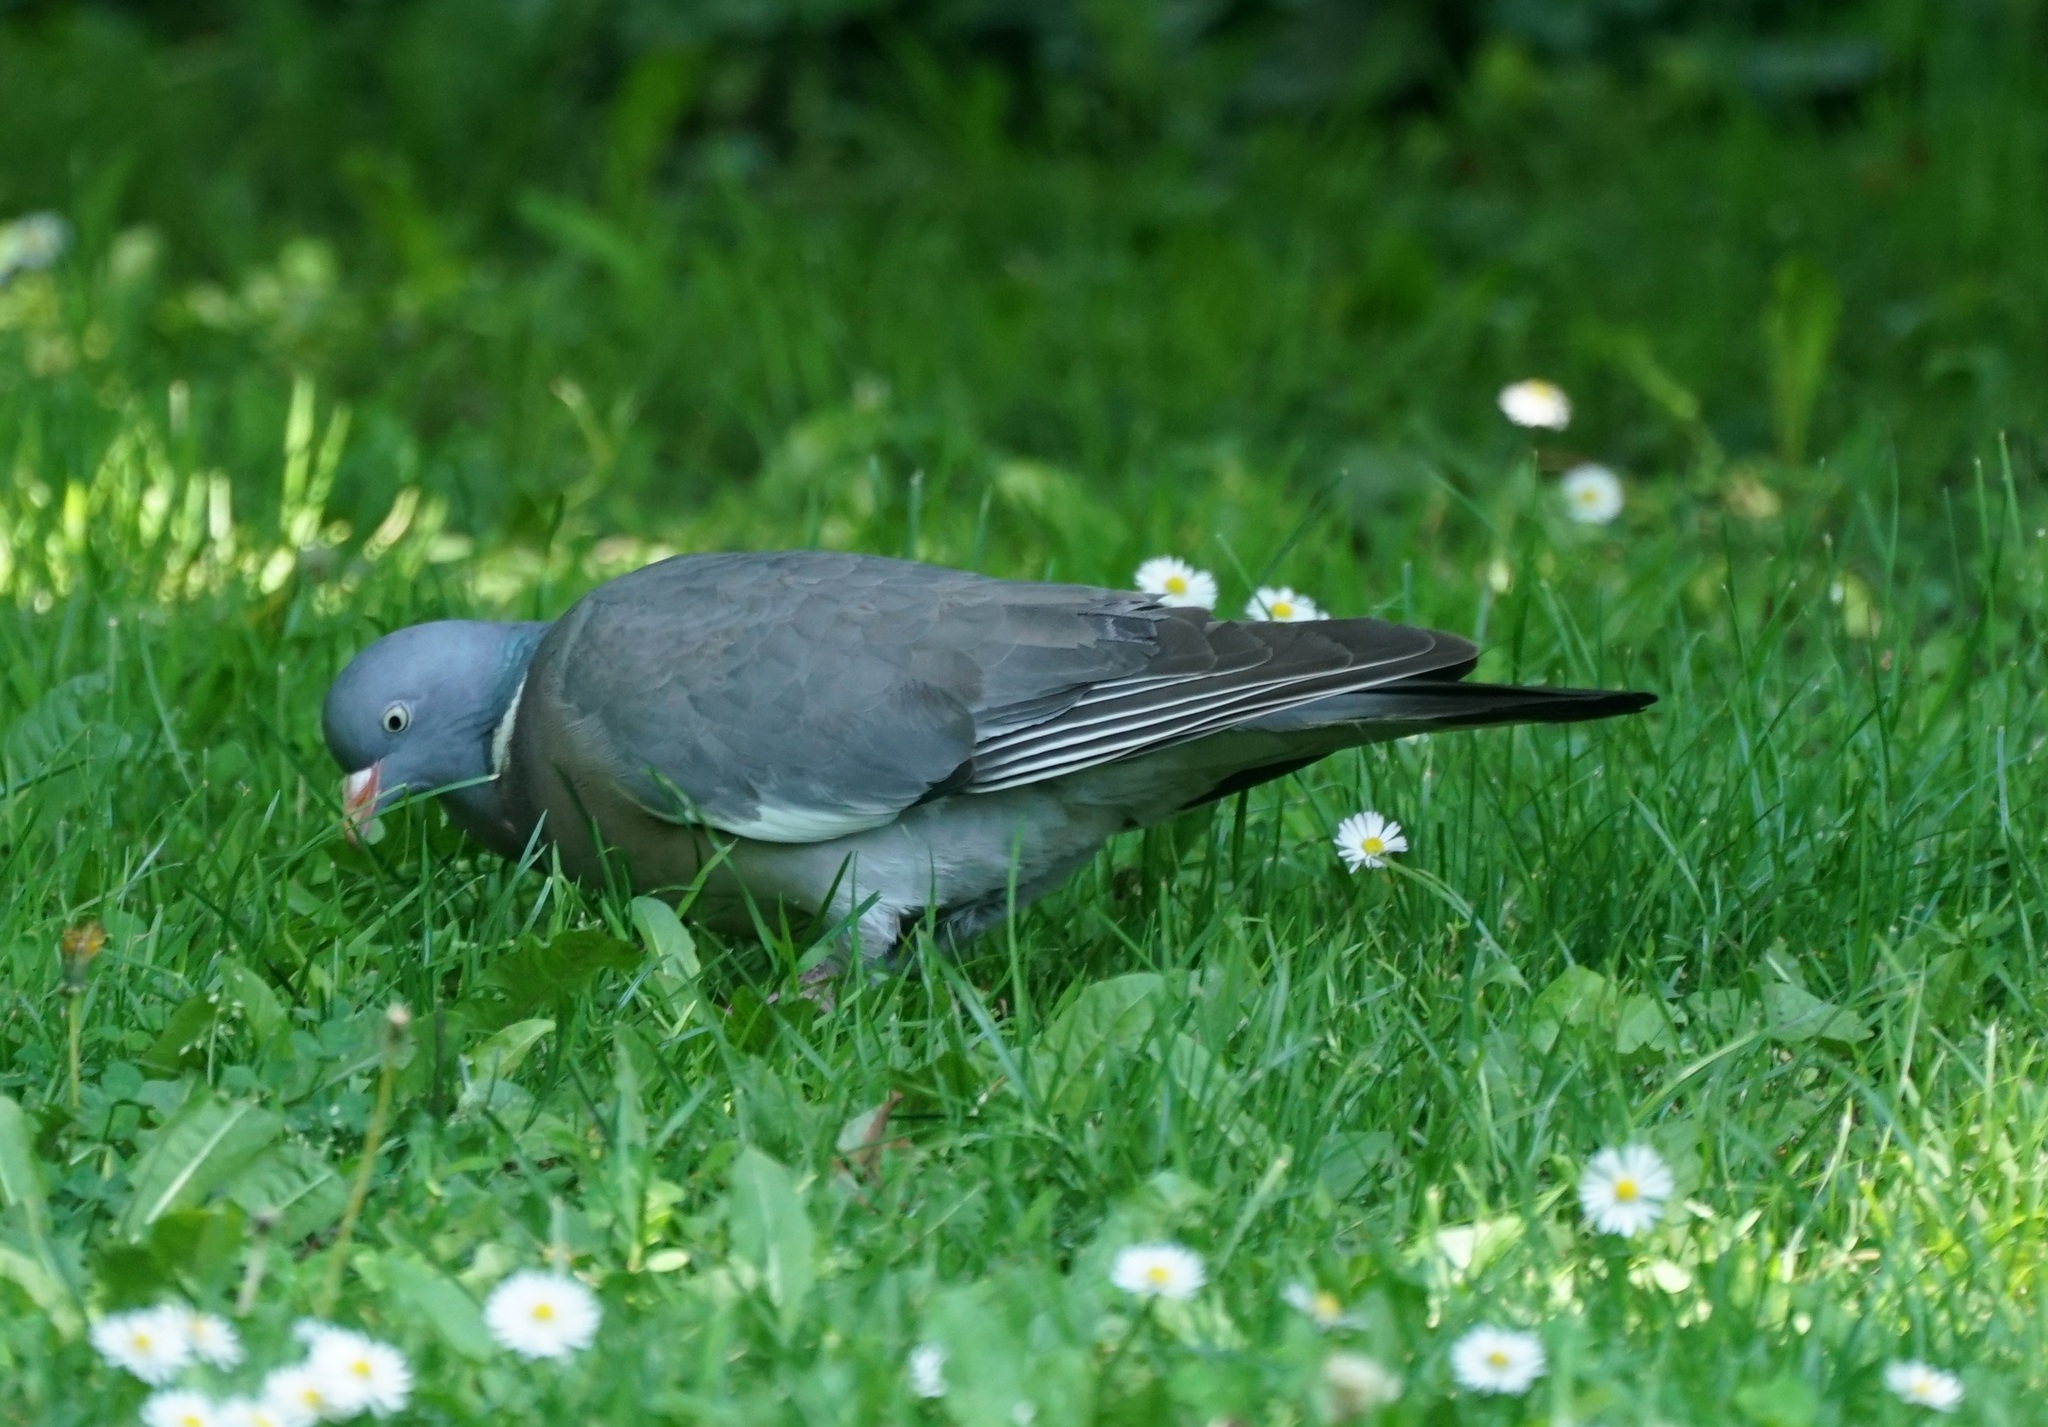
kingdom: Animalia
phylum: Chordata
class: Aves
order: Columbiformes
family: Columbidae
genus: Columba
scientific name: Columba palumbus
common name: Common wood pigeon
